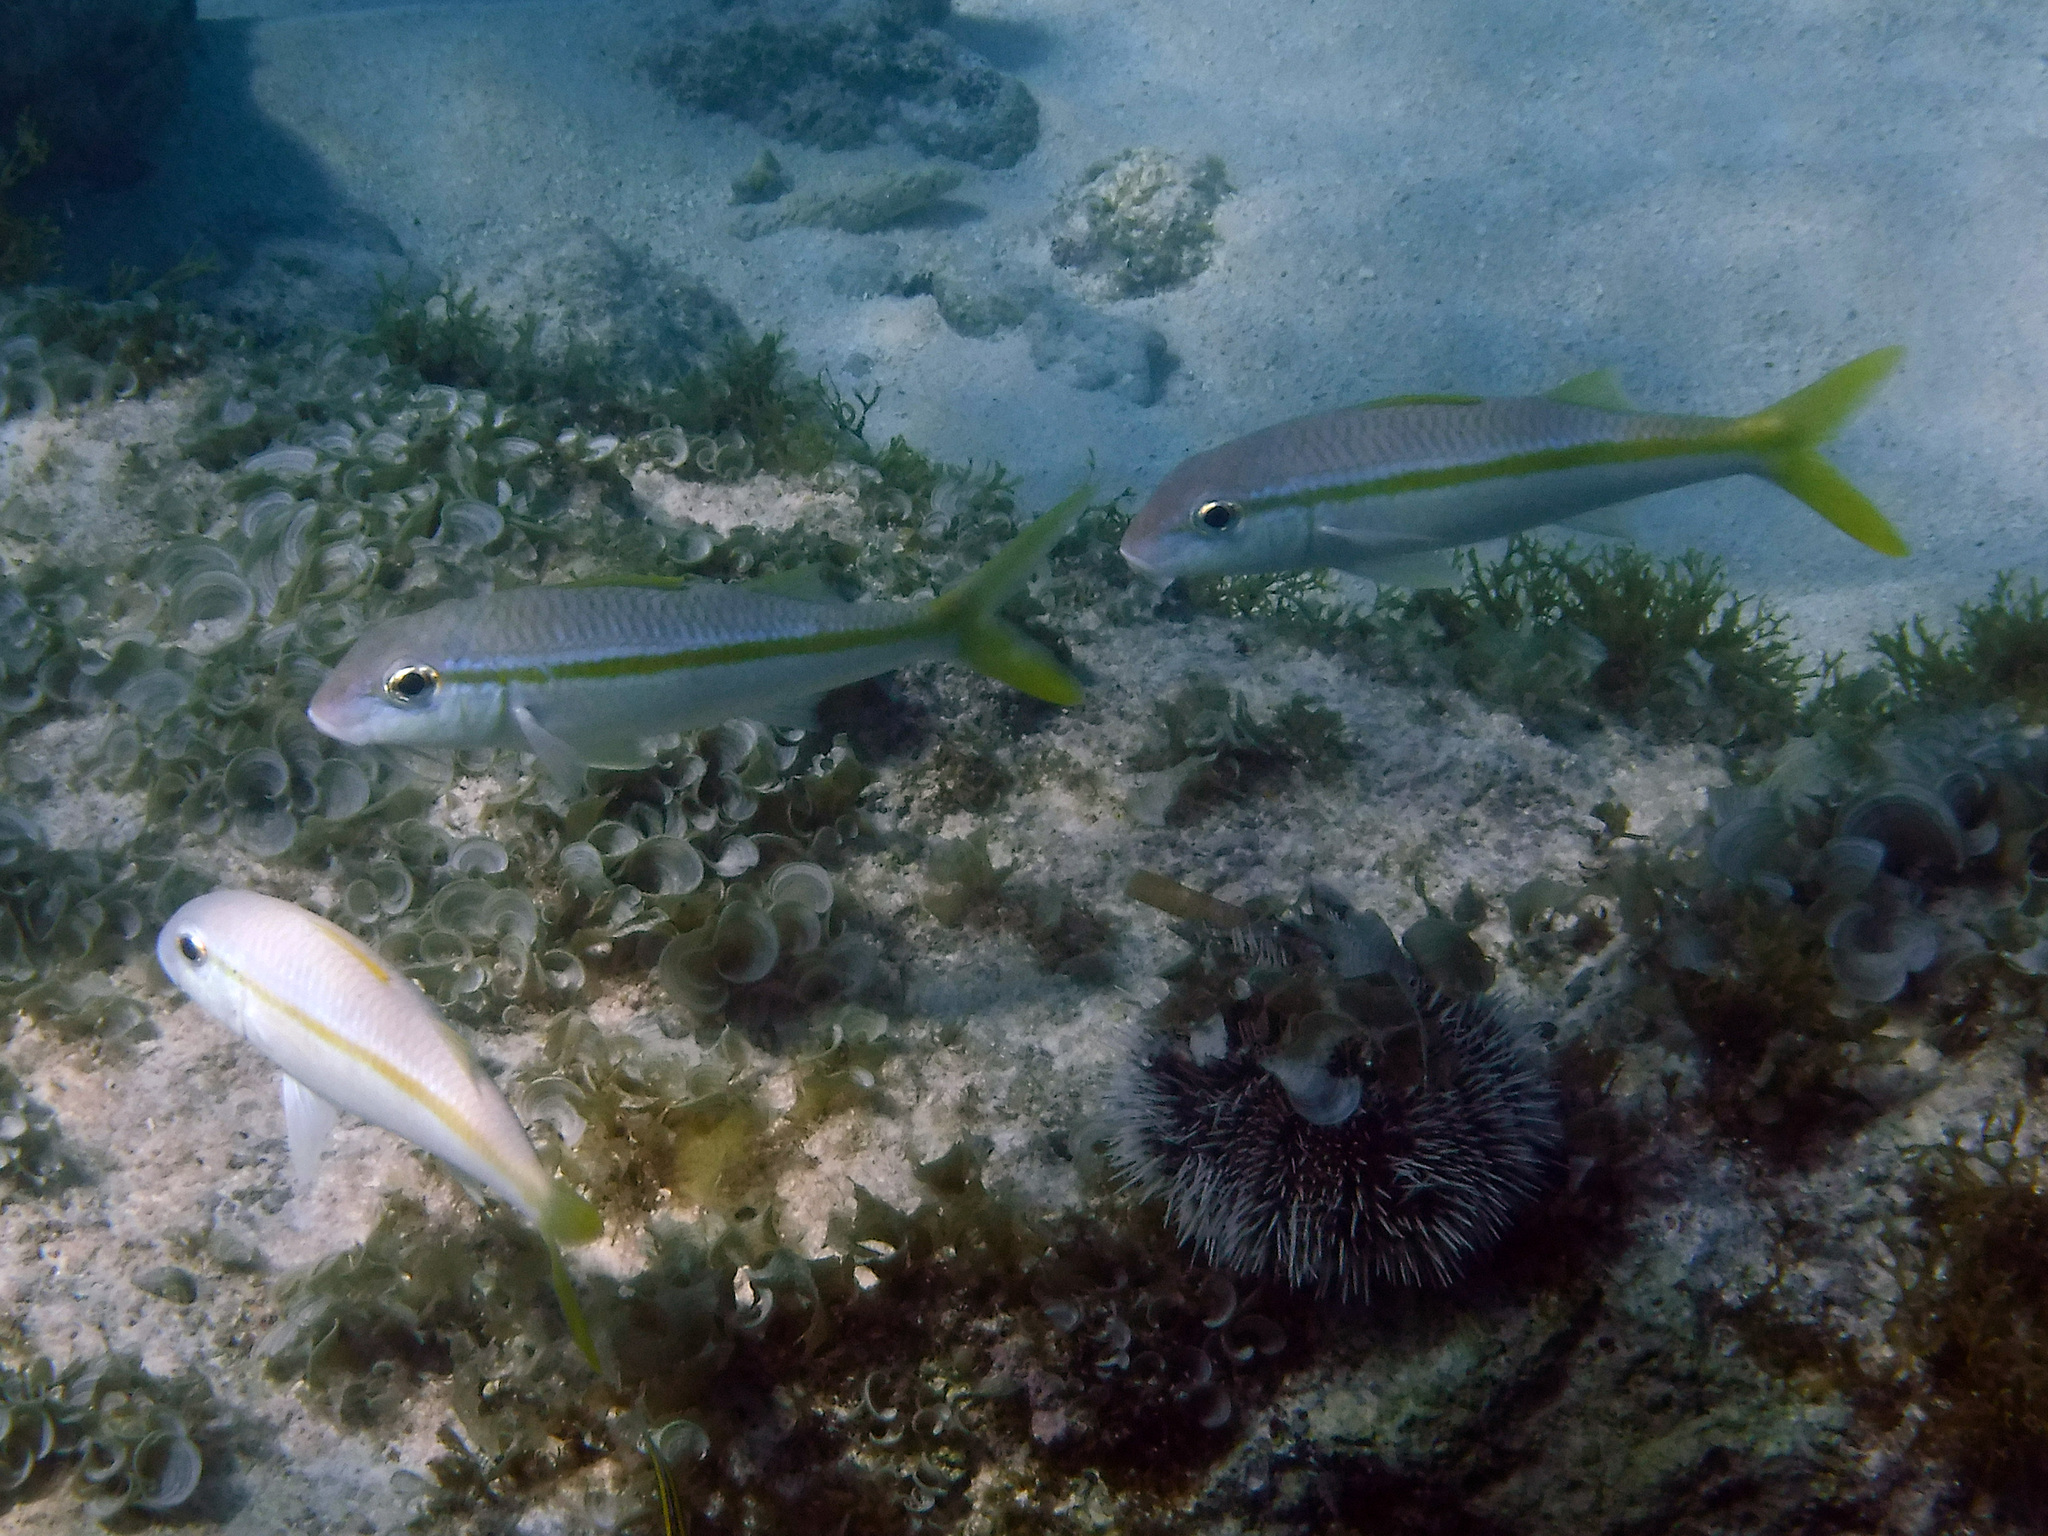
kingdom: Animalia
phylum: Chordata
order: Perciformes
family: Mullidae
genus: Mulloidichthys
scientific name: Mulloidichthys martinicus
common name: Yellow goatfish
